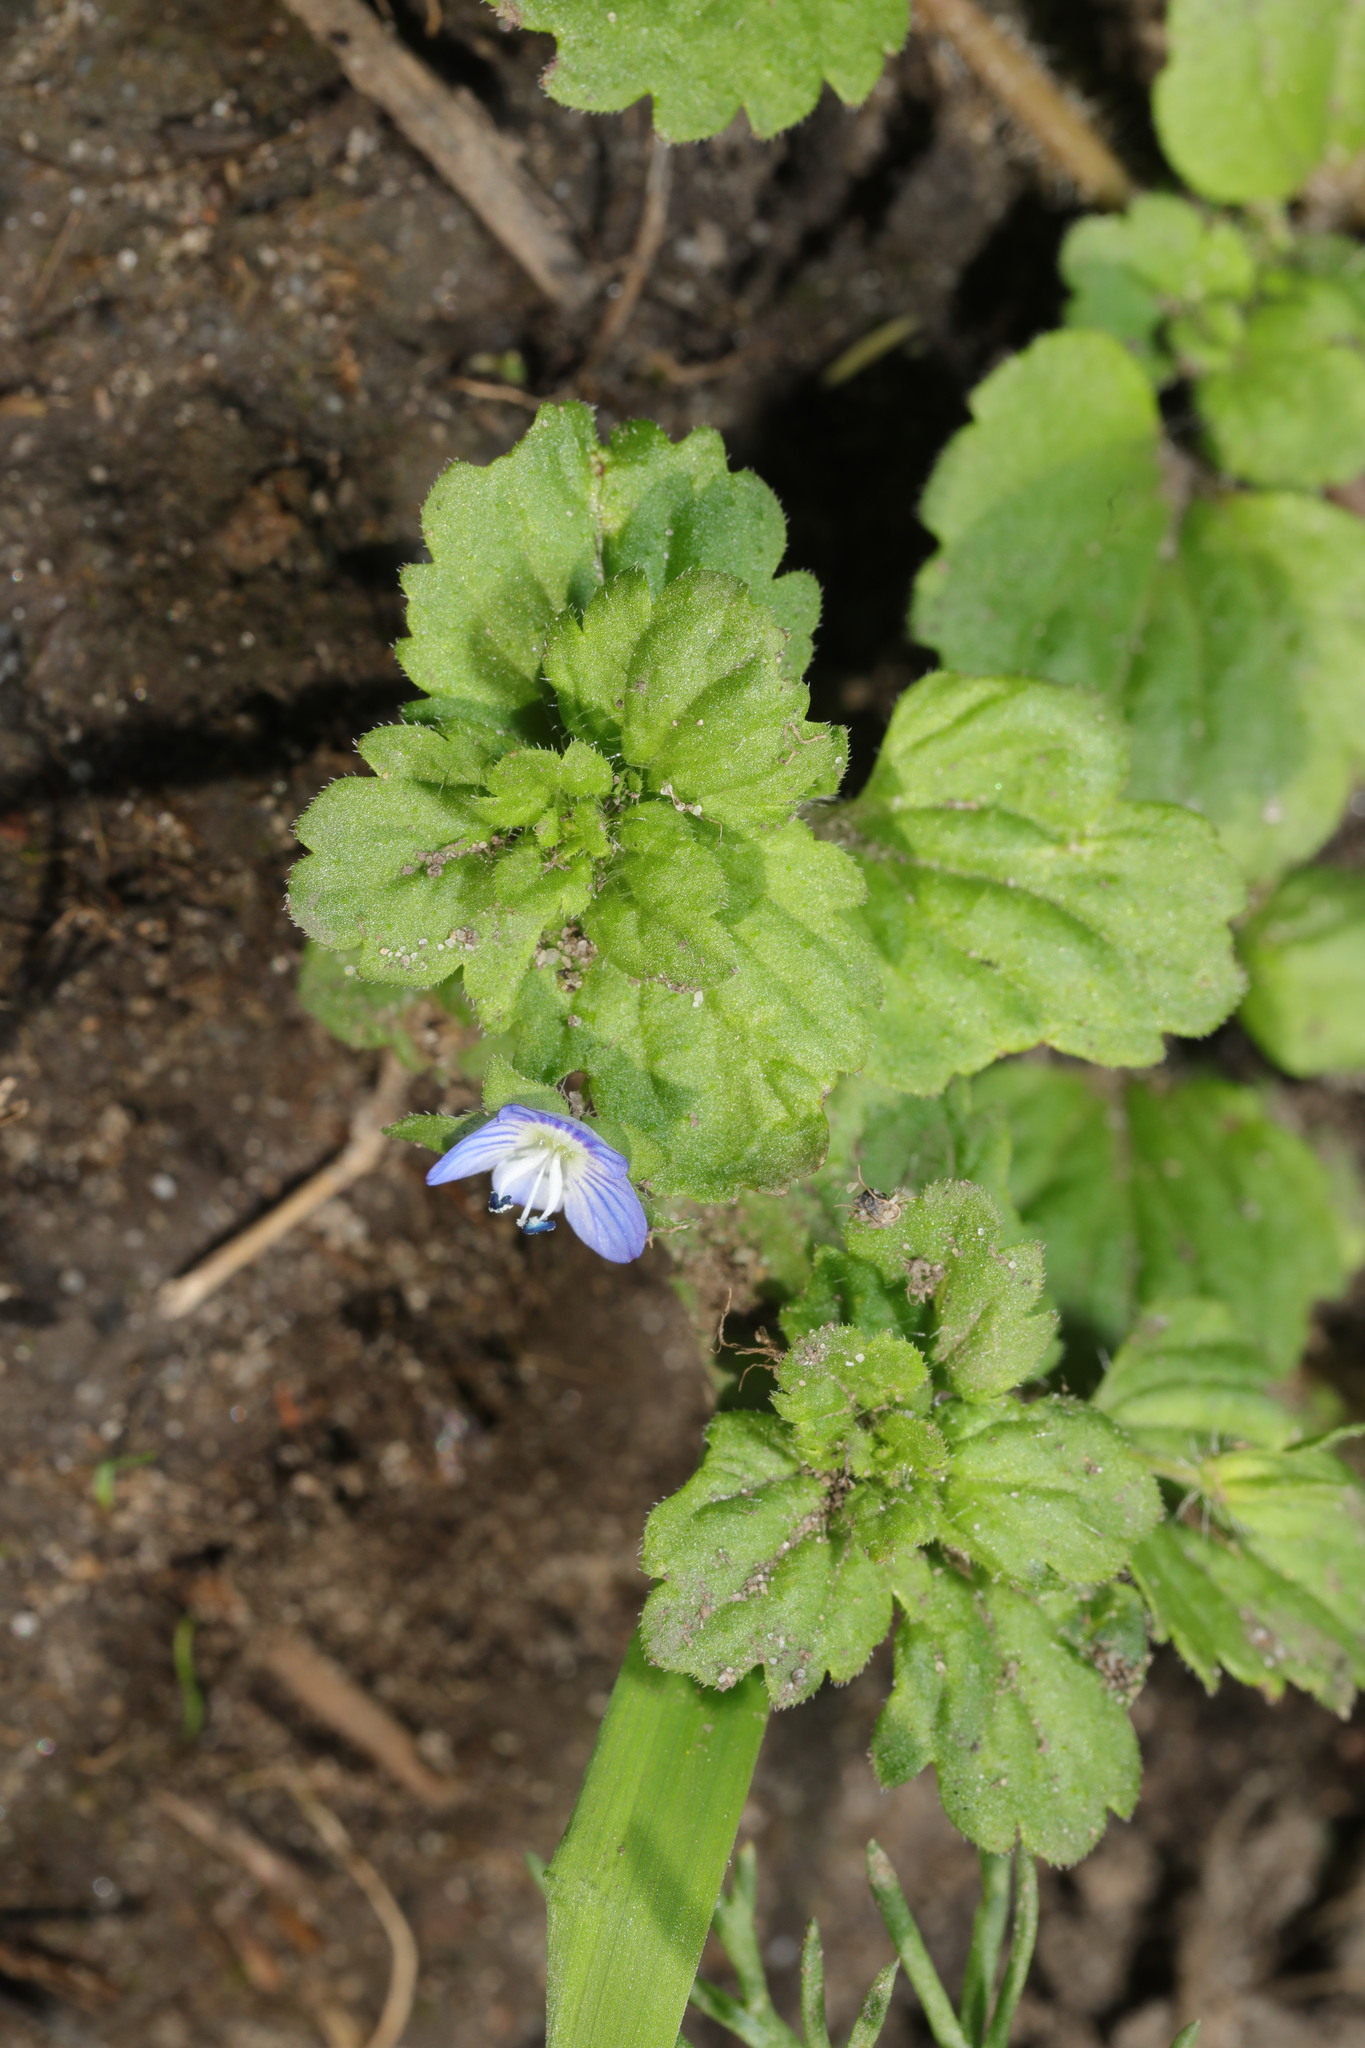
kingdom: Plantae
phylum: Tracheophyta
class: Magnoliopsida
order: Lamiales
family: Plantaginaceae
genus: Veronica
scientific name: Veronica persica
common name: Common field-speedwell
